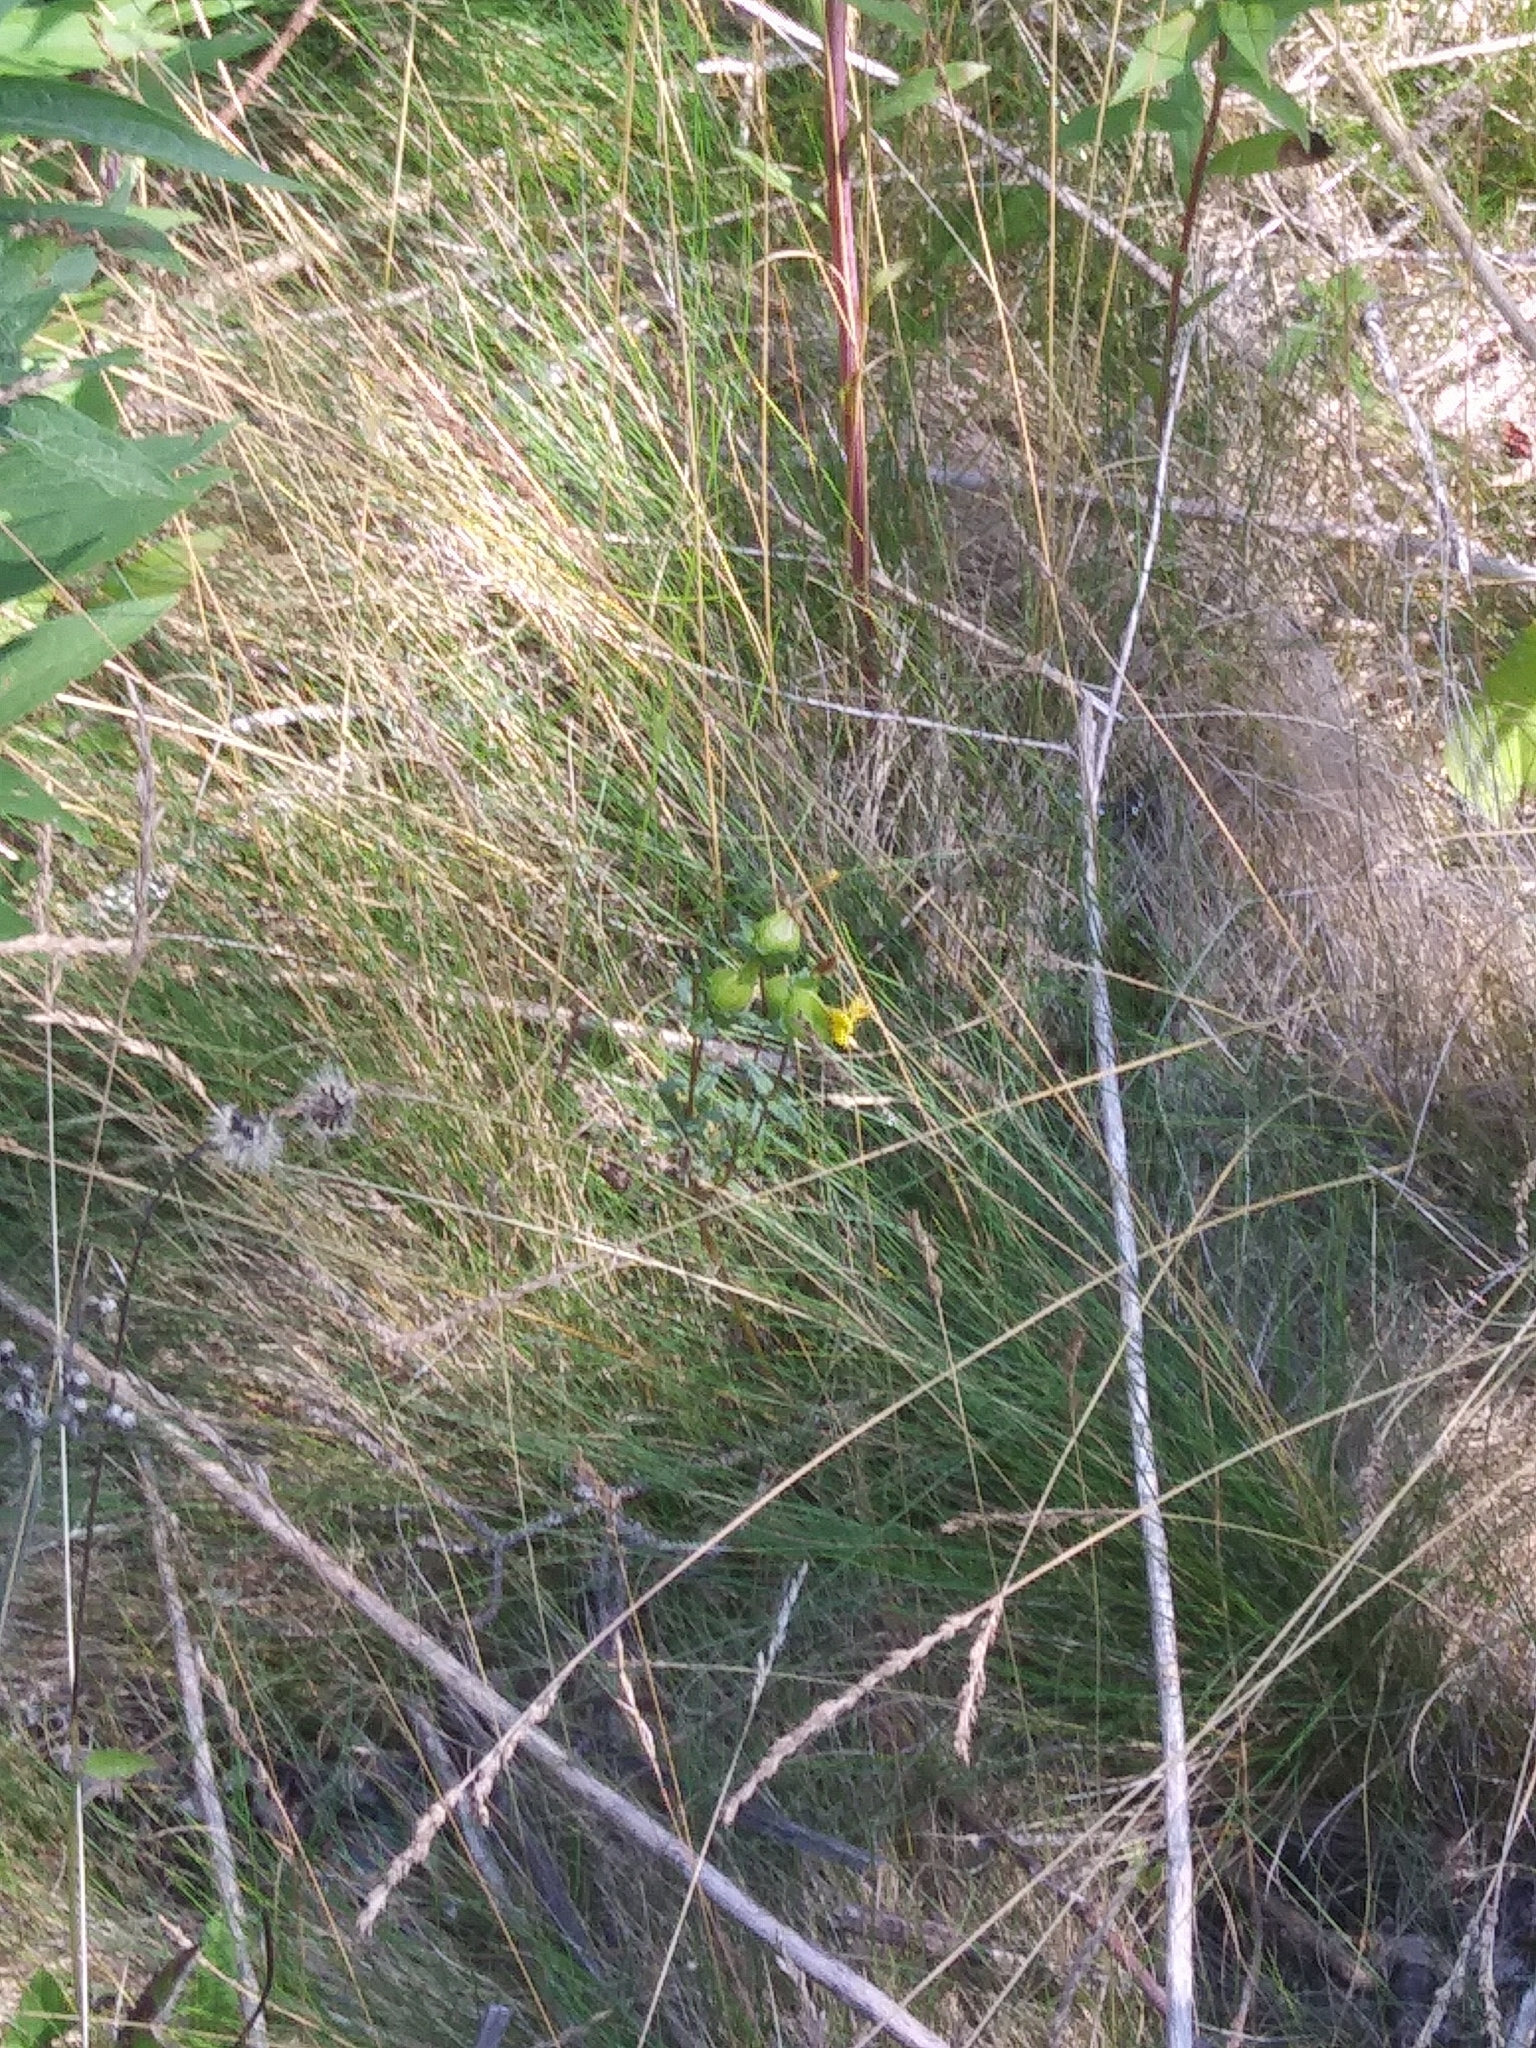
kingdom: Plantae
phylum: Tracheophyta
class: Magnoliopsida
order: Lamiales
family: Orobanchaceae
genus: Rhinanthus
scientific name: Rhinanthus minor
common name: Yellow-rattle
